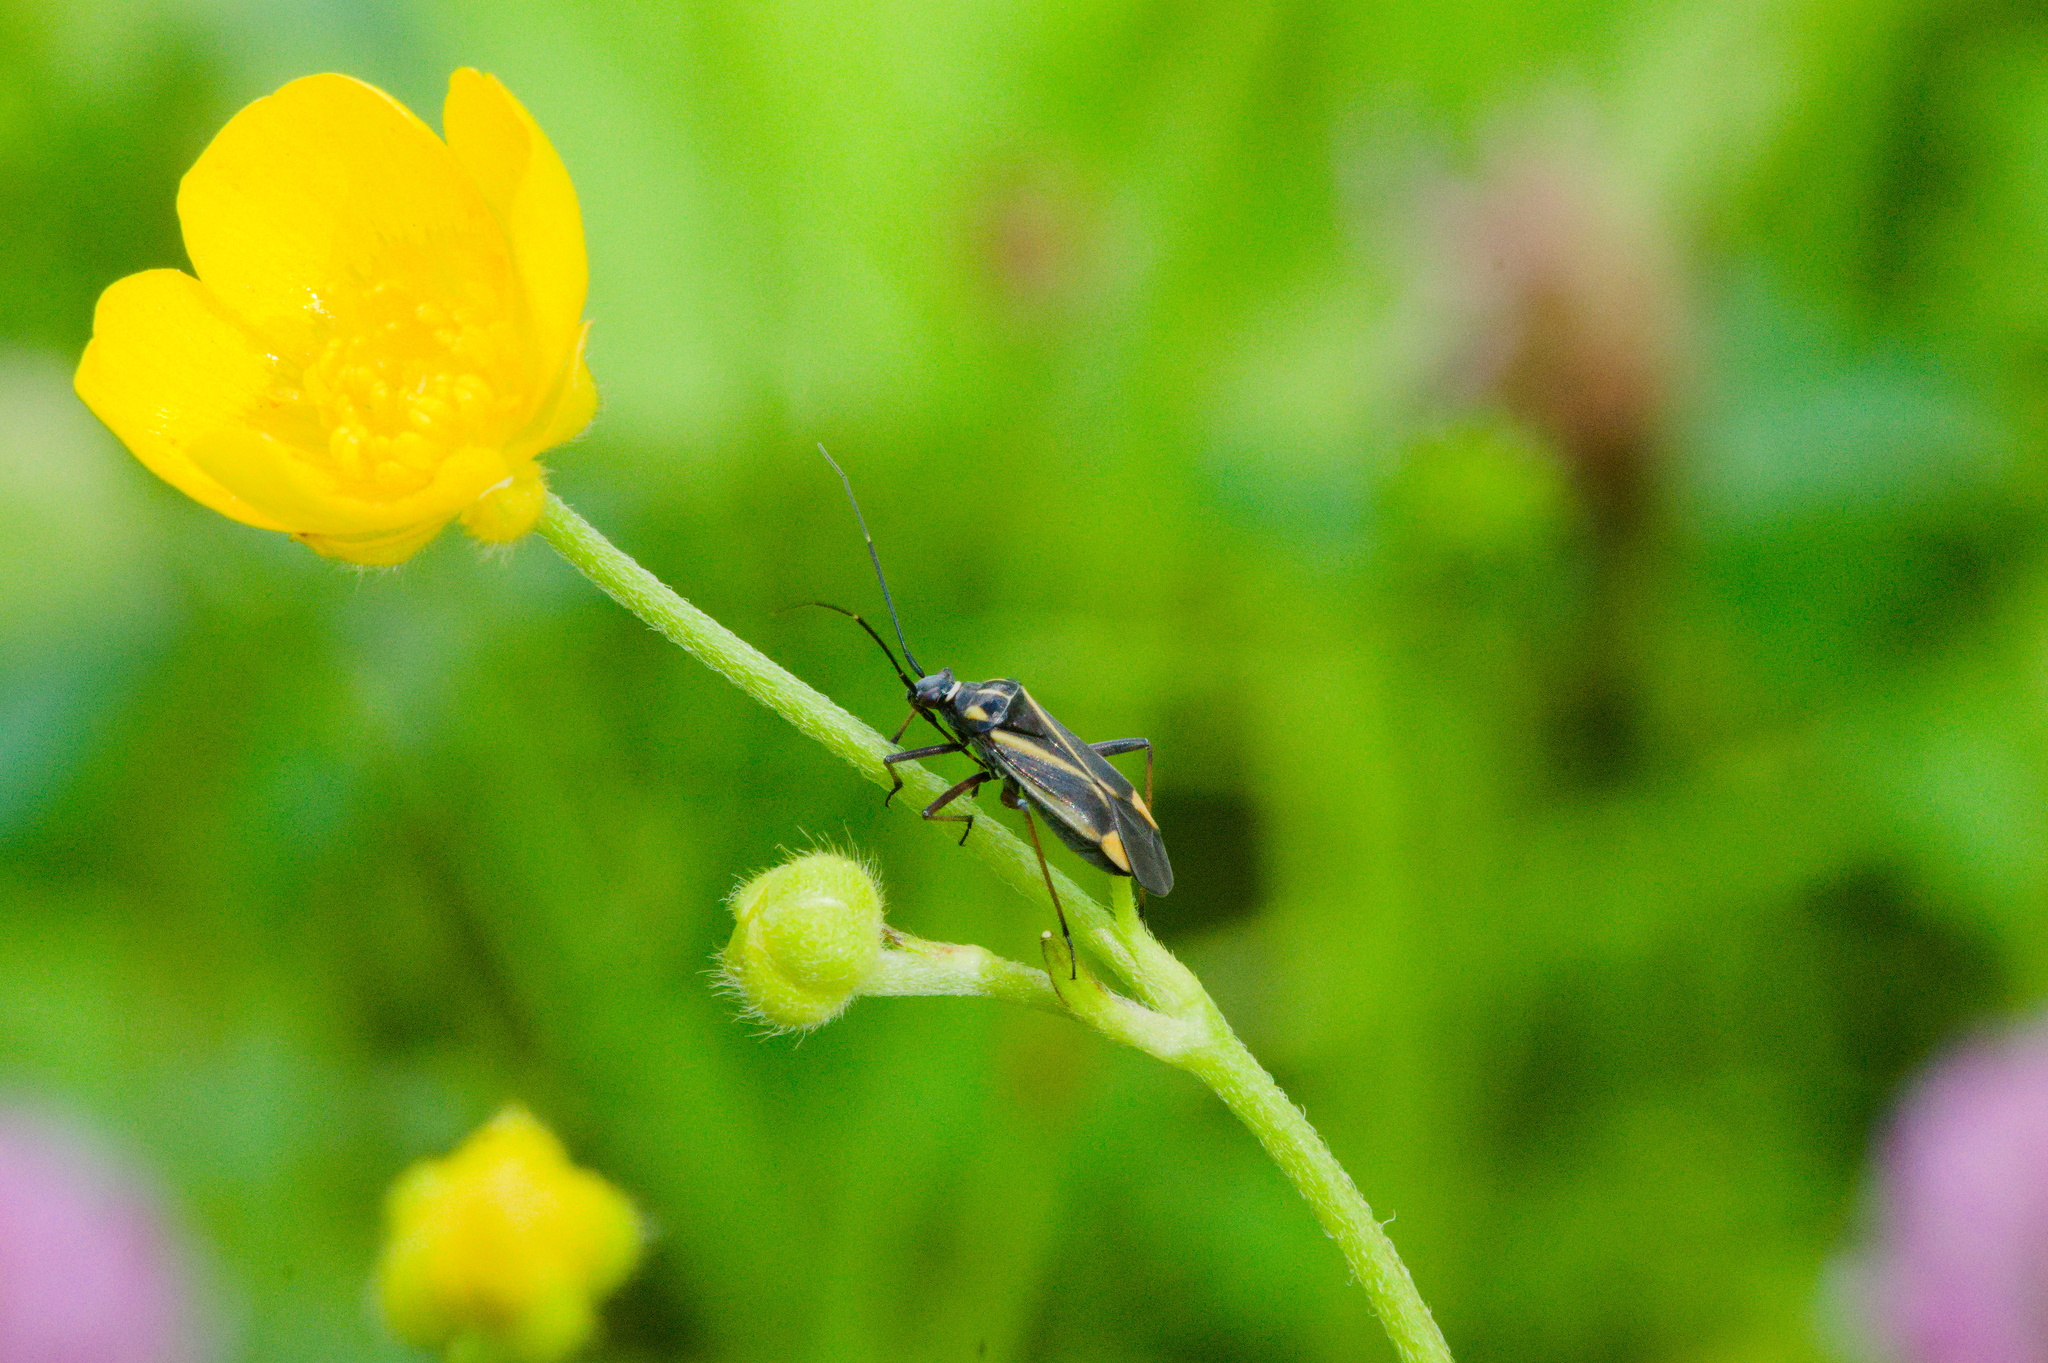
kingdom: Animalia
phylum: Arthropoda
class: Insecta
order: Hemiptera
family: Miridae
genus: Hadrodemus
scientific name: Hadrodemus m-flavum
